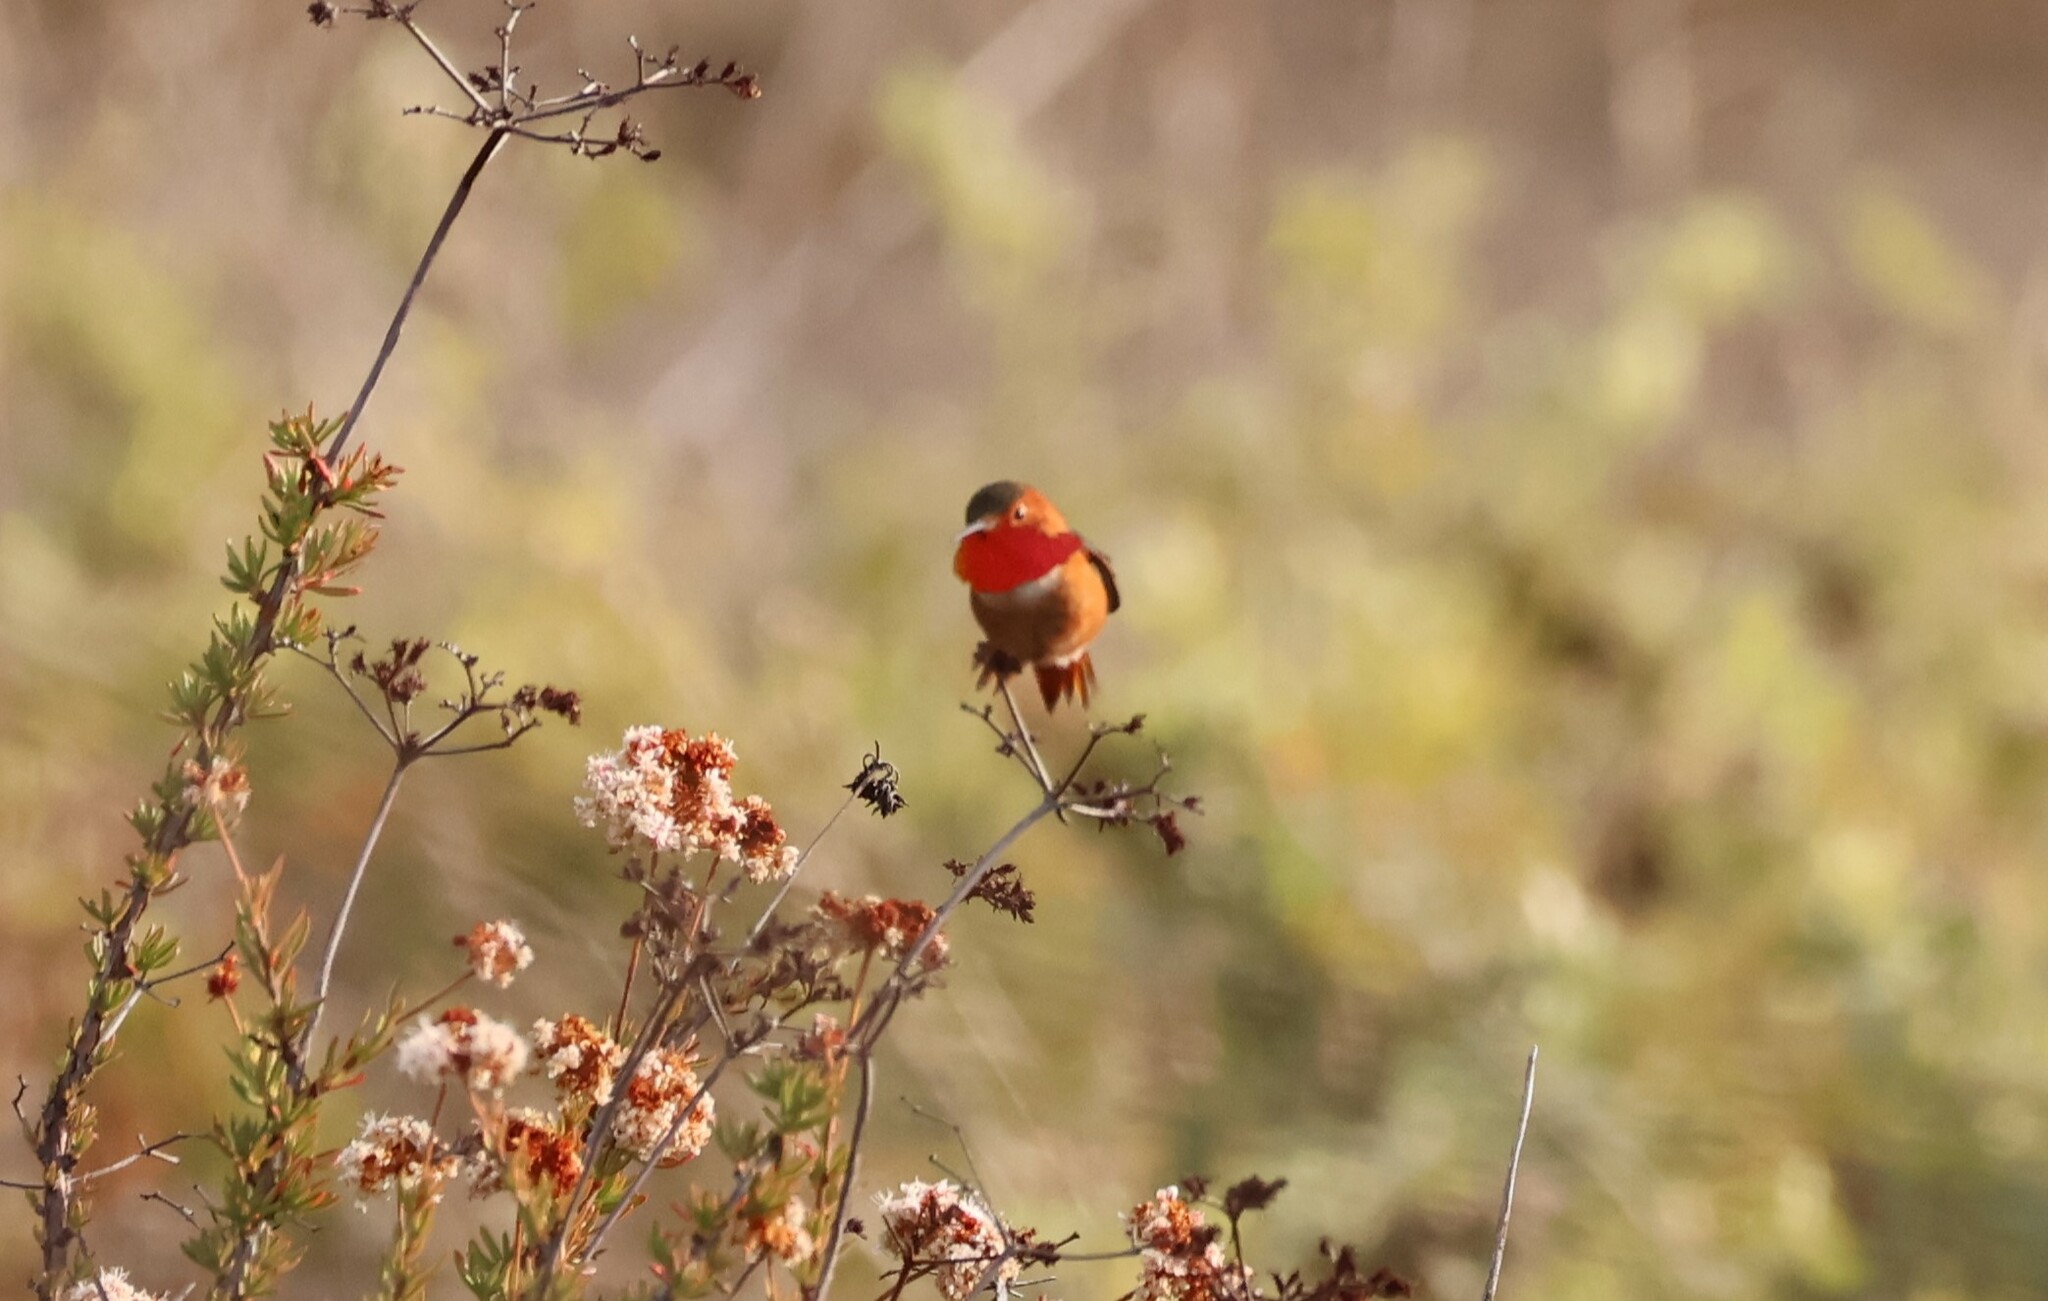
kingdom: Animalia
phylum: Chordata
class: Aves
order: Apodiformes
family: Trochilidae
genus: Selasphorus
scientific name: Selasphorus sasin
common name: Allen's hummingbird
